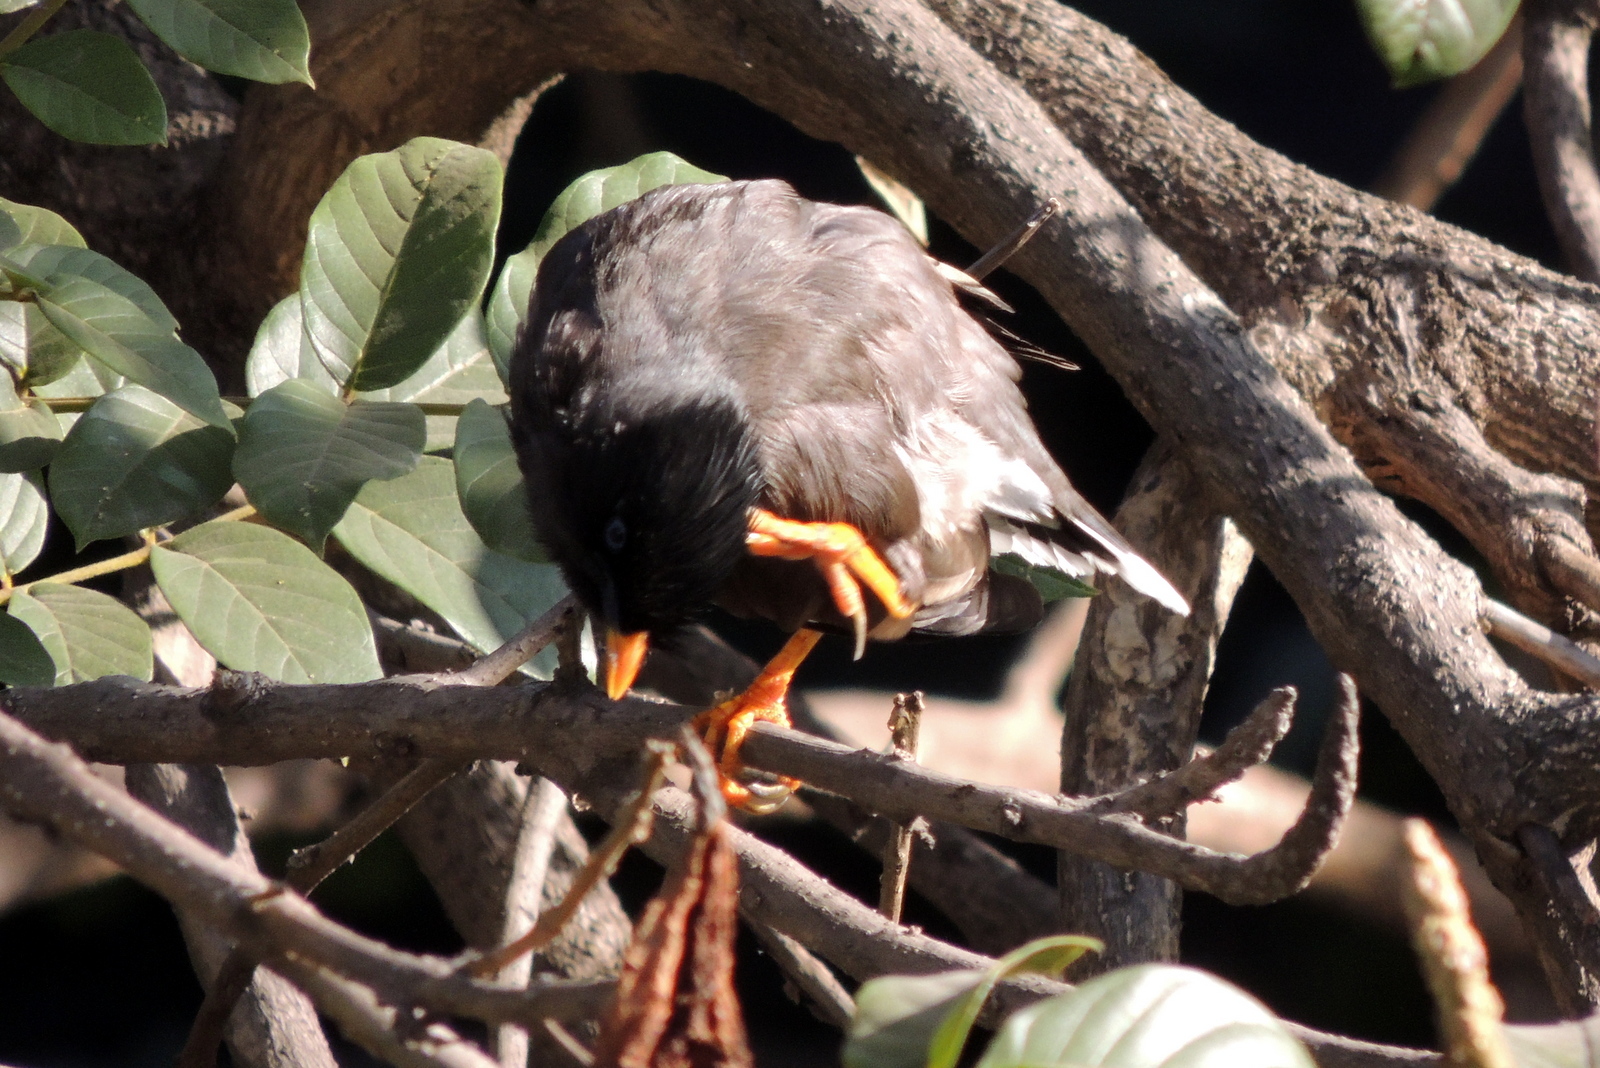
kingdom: Animalia
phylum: Chordata
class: Aves
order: Passeriformes
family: Sturnidae
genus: Acridotheres
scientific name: Acridotheres fuscus
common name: Jungle myna
